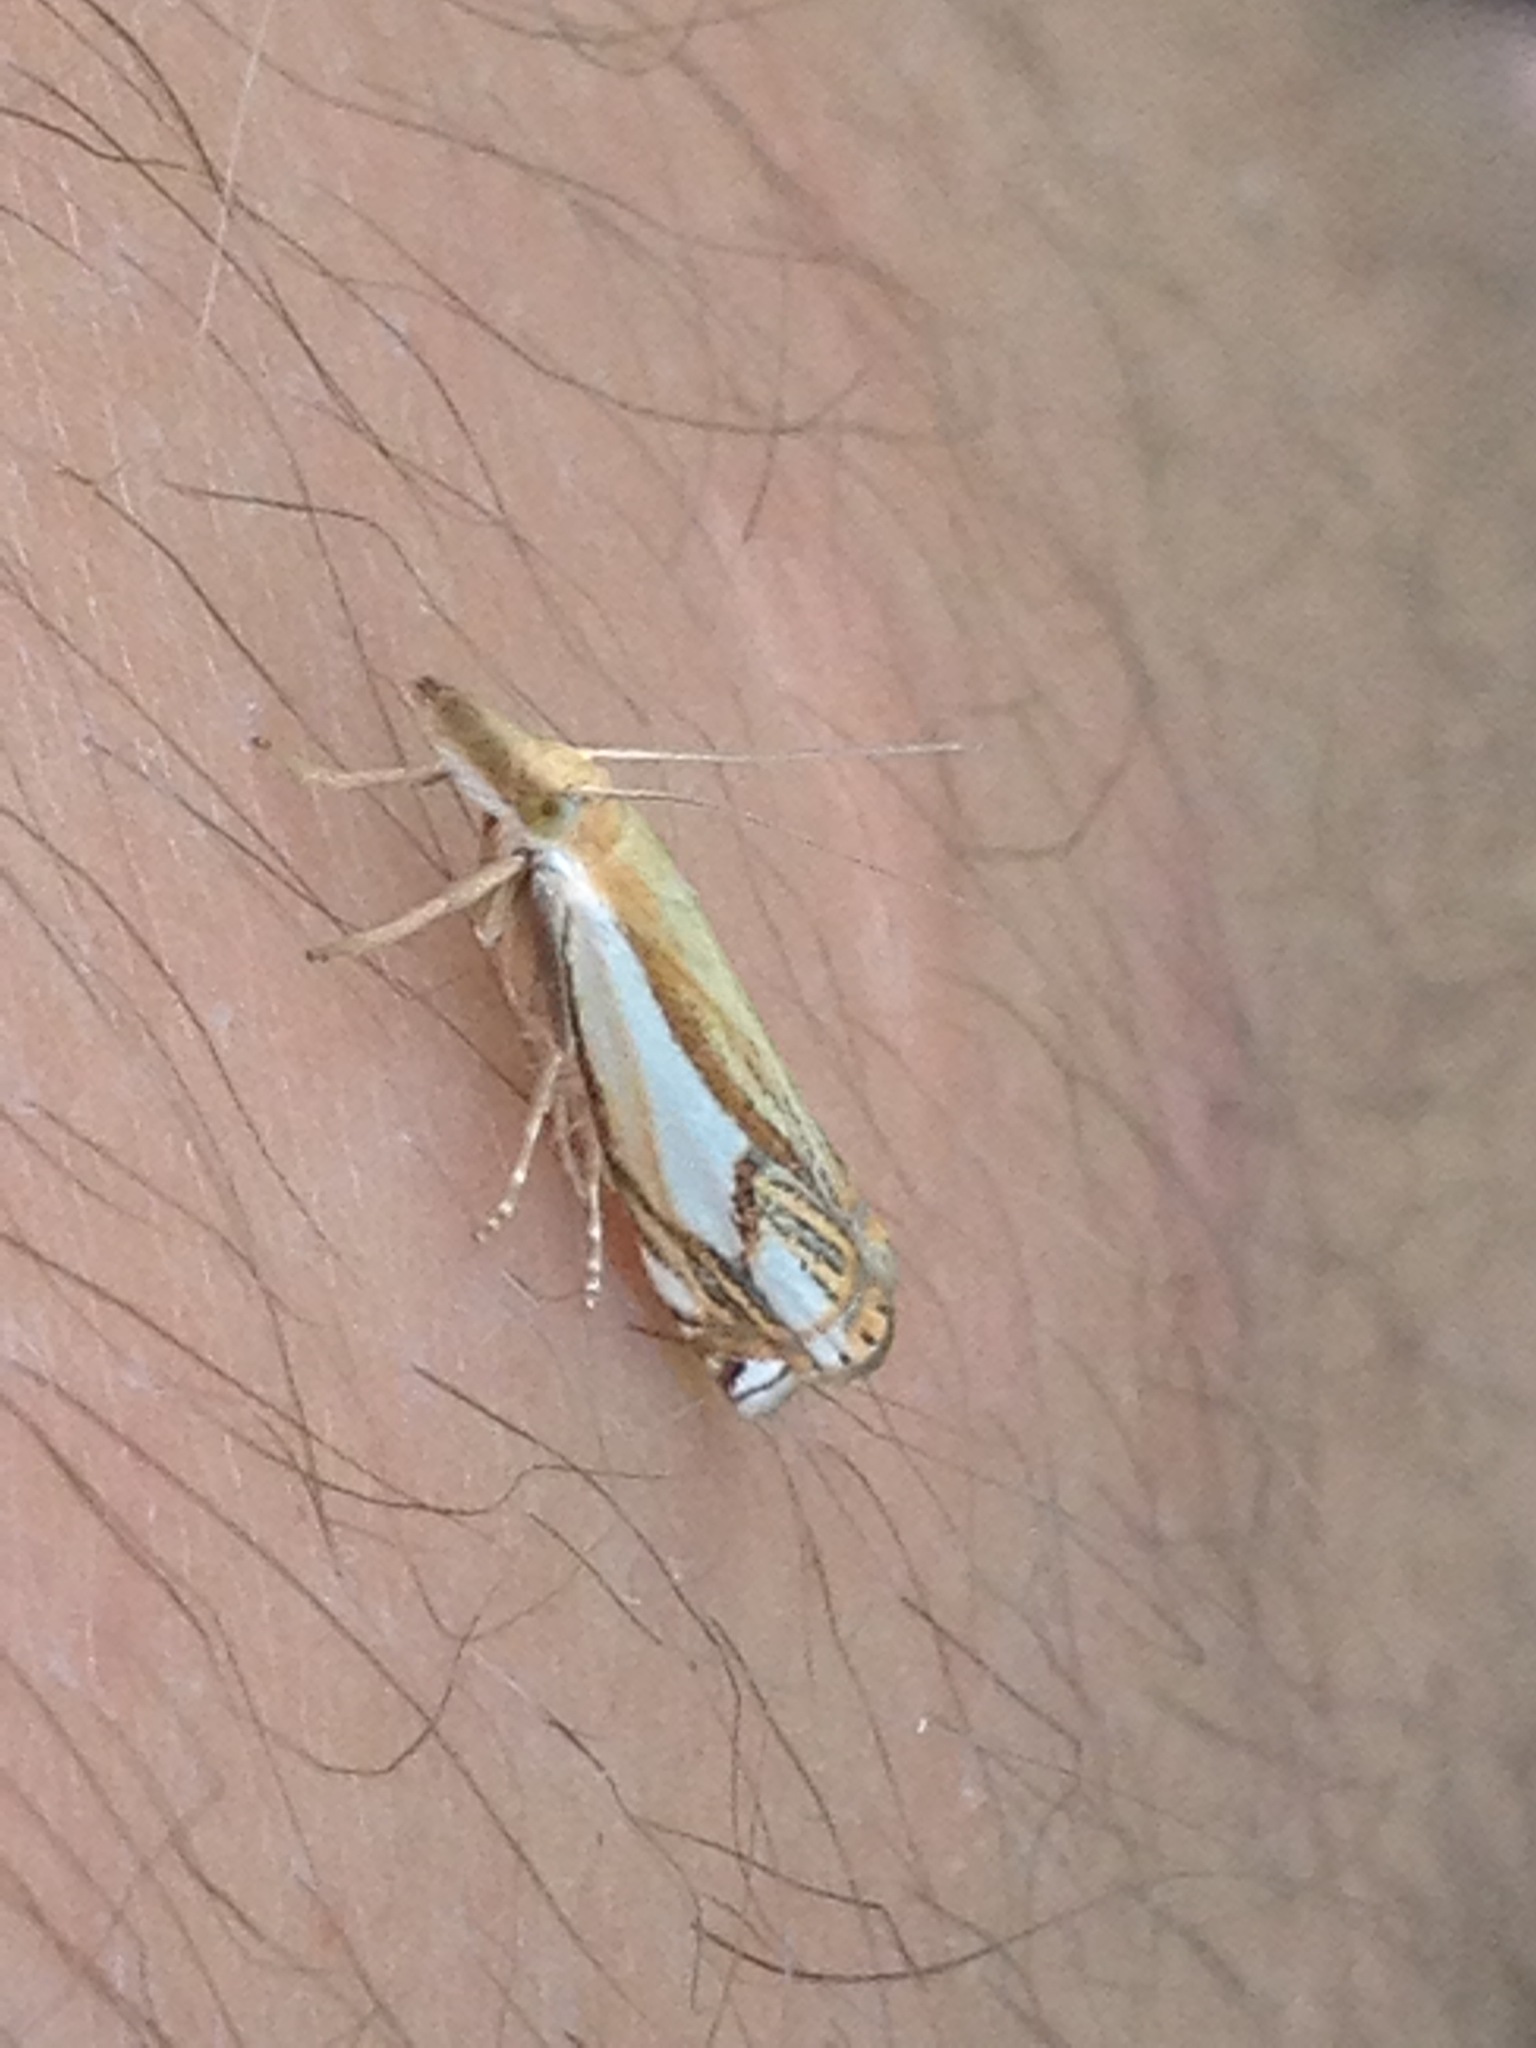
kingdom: Animalia
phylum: Arthropoda
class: Insecta
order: Lepidoptera
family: Crambidae
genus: Crambus
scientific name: Crambus agitatellus
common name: Double-banded grass-veneer
